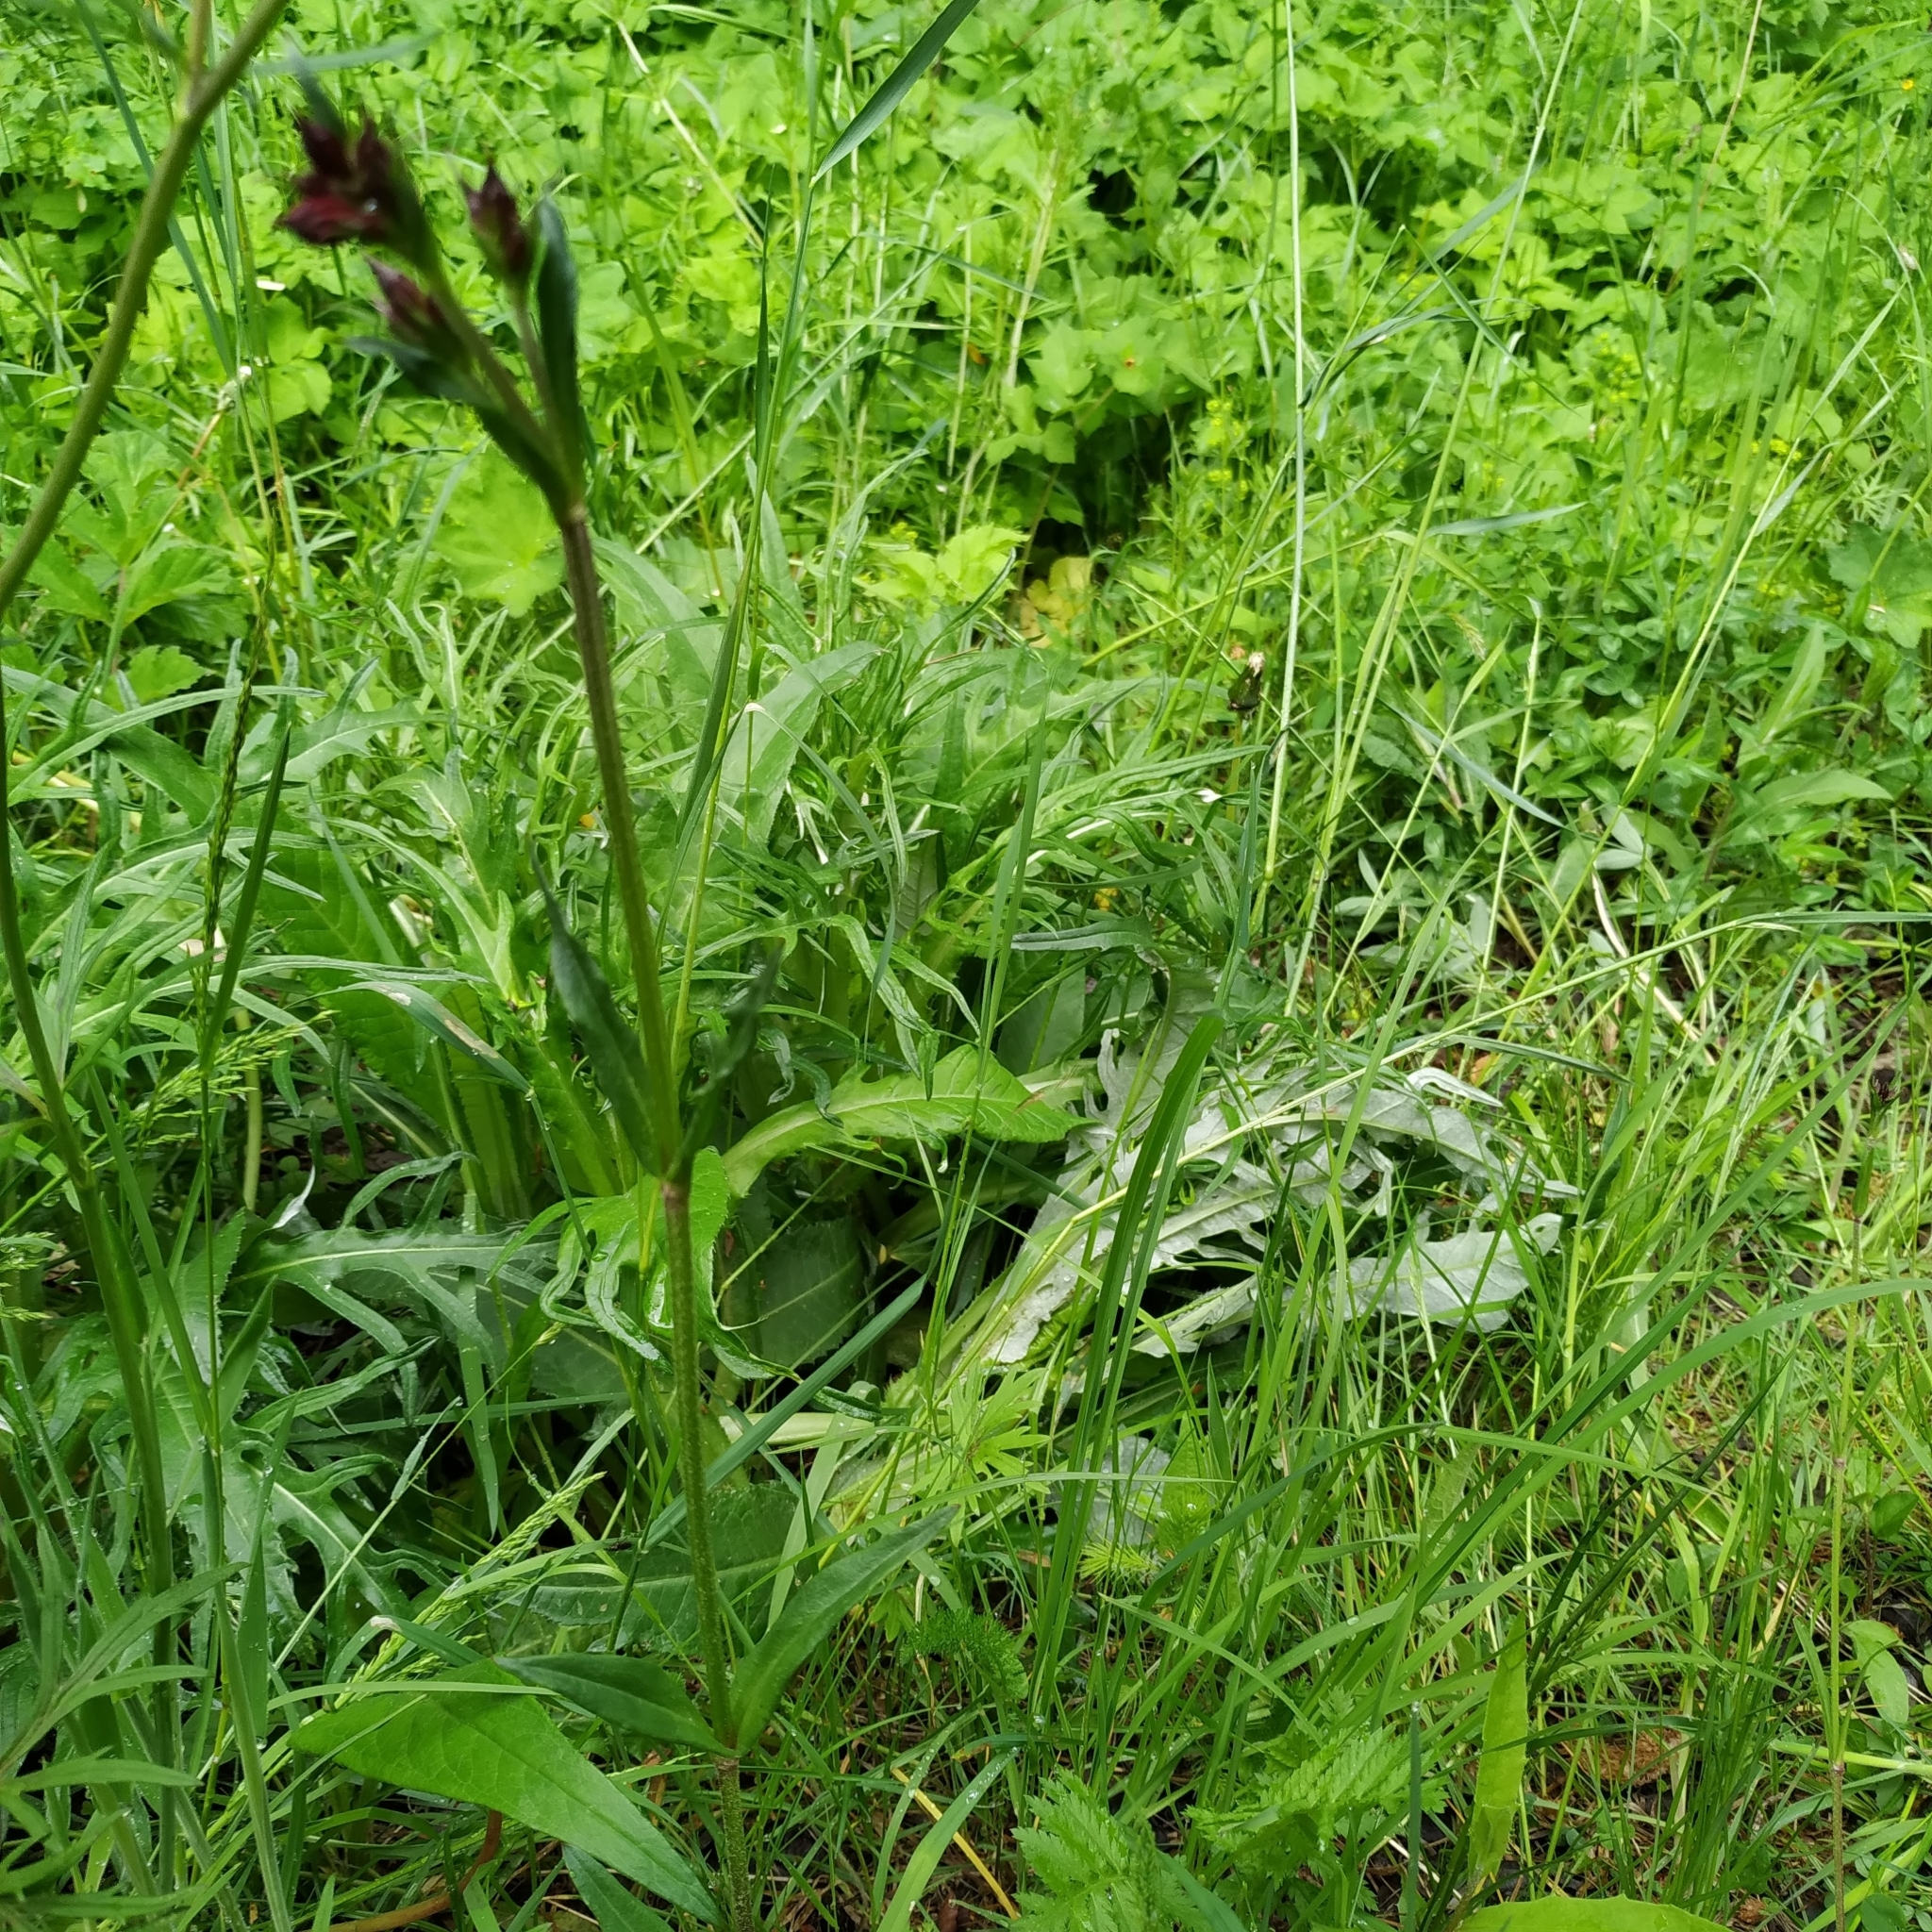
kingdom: Plantae
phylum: Tracheophyta
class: Magnoliopsida
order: Caryophyllales
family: Caryophyllaceae
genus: Silene
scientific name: Silene flos-cuculi
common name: Ragged-robin
